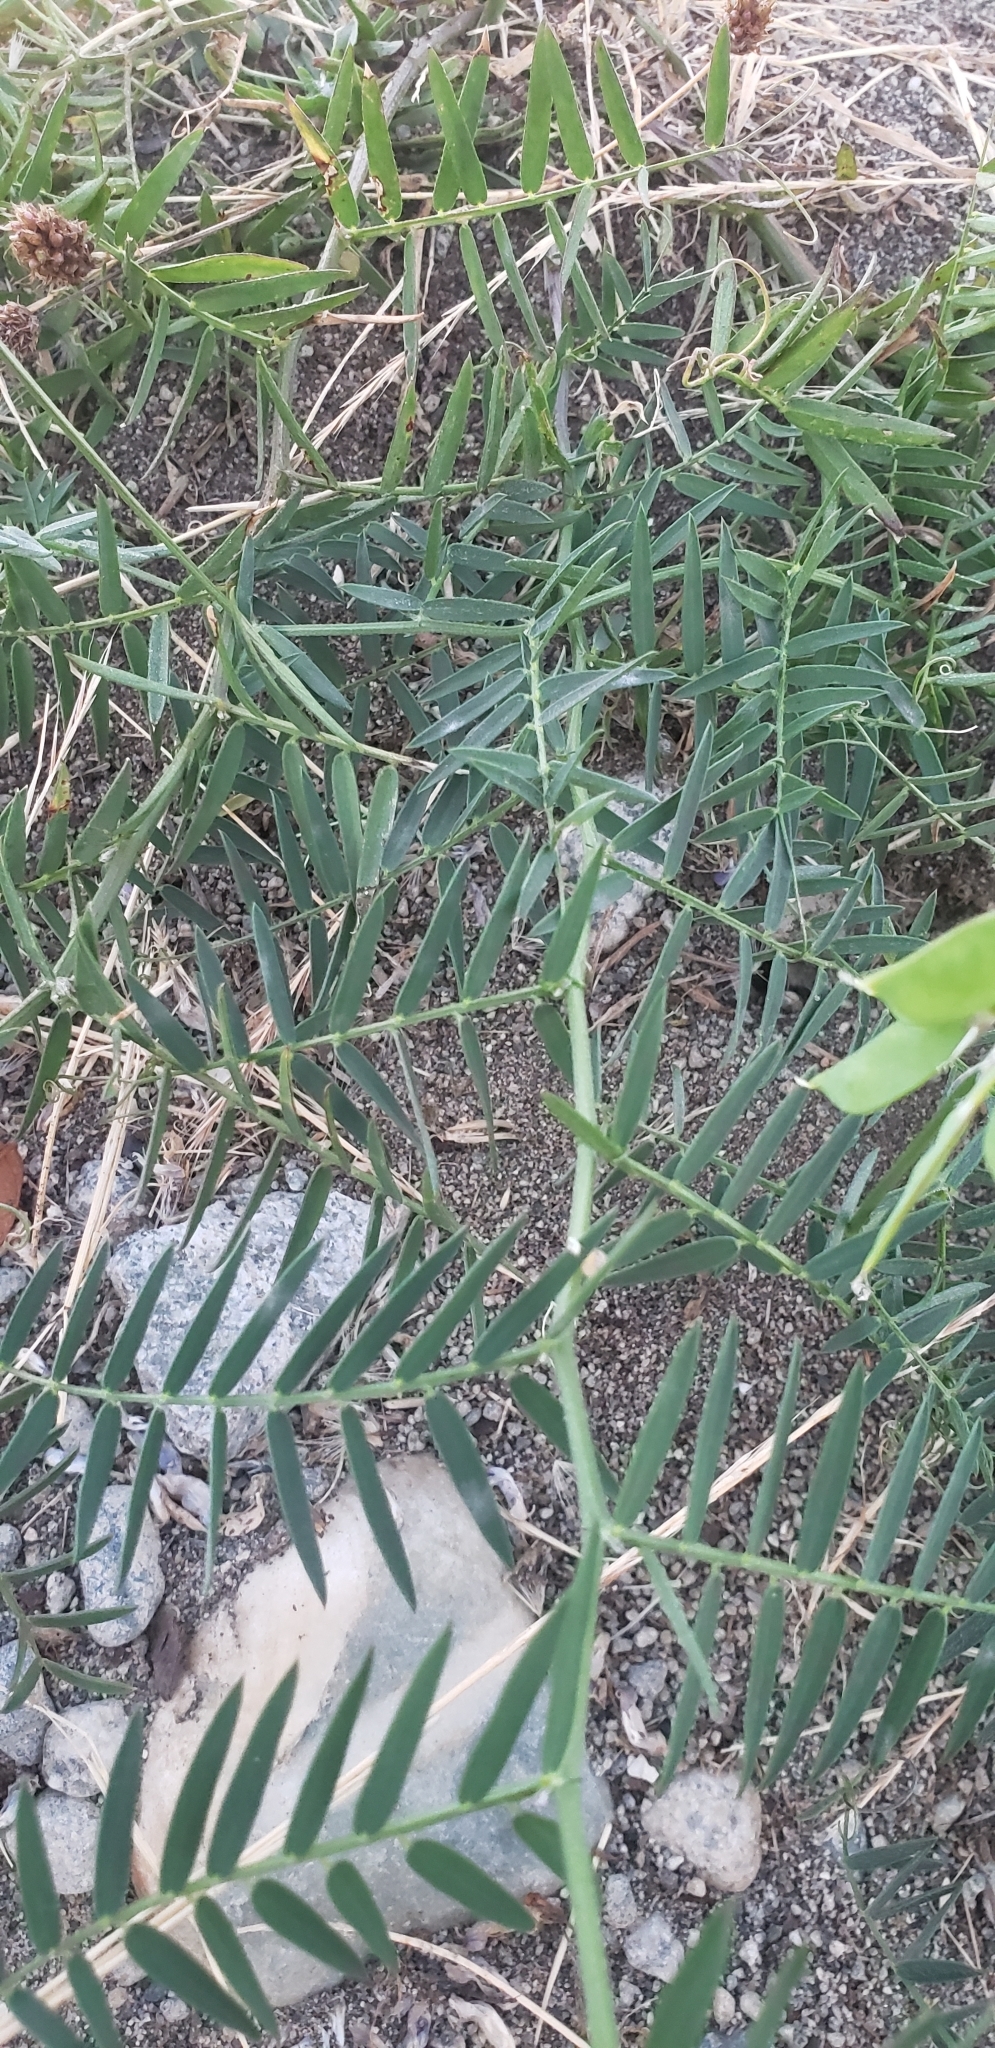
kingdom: Plantae
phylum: Tracheophyta
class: Magnoliopsida
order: Fabales
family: Fabaceae
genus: Vicia
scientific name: Vicia cracca
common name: Bird vetch
